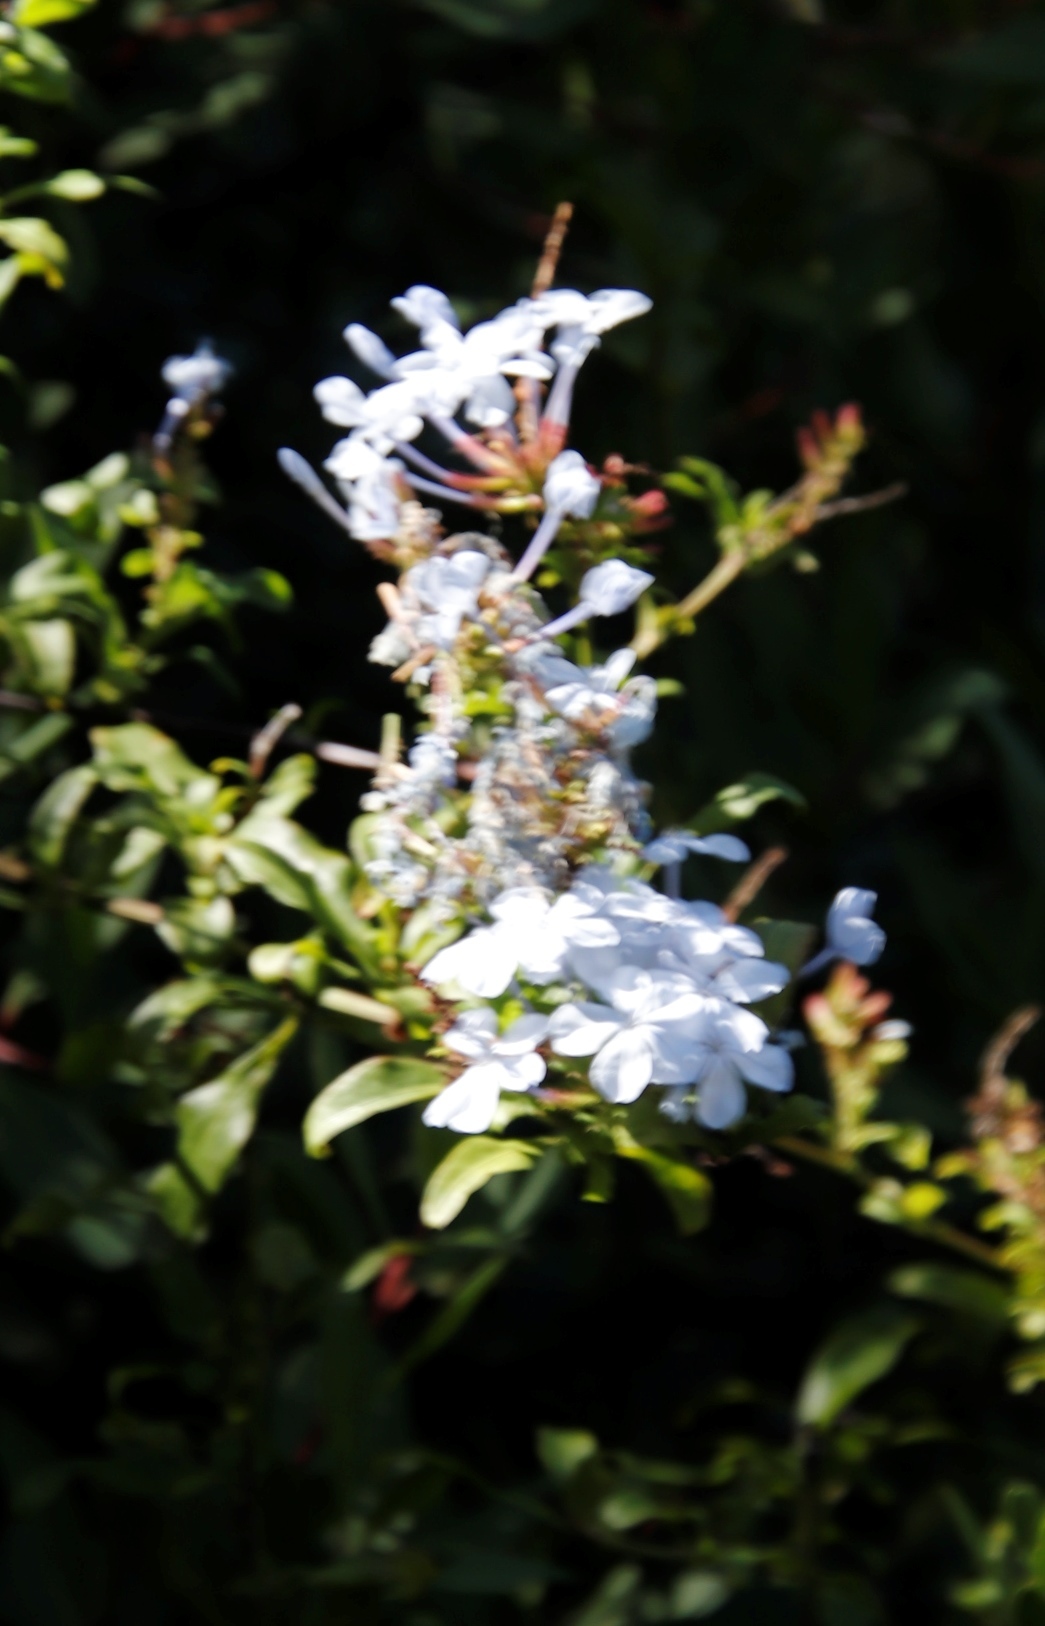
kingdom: Plantae
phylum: Tracheophyta
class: Magnoliopsida
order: Caryophyllales
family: Plumbaginaceae
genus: Plumbago
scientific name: Plumbago auriculata
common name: Cape leadwort
